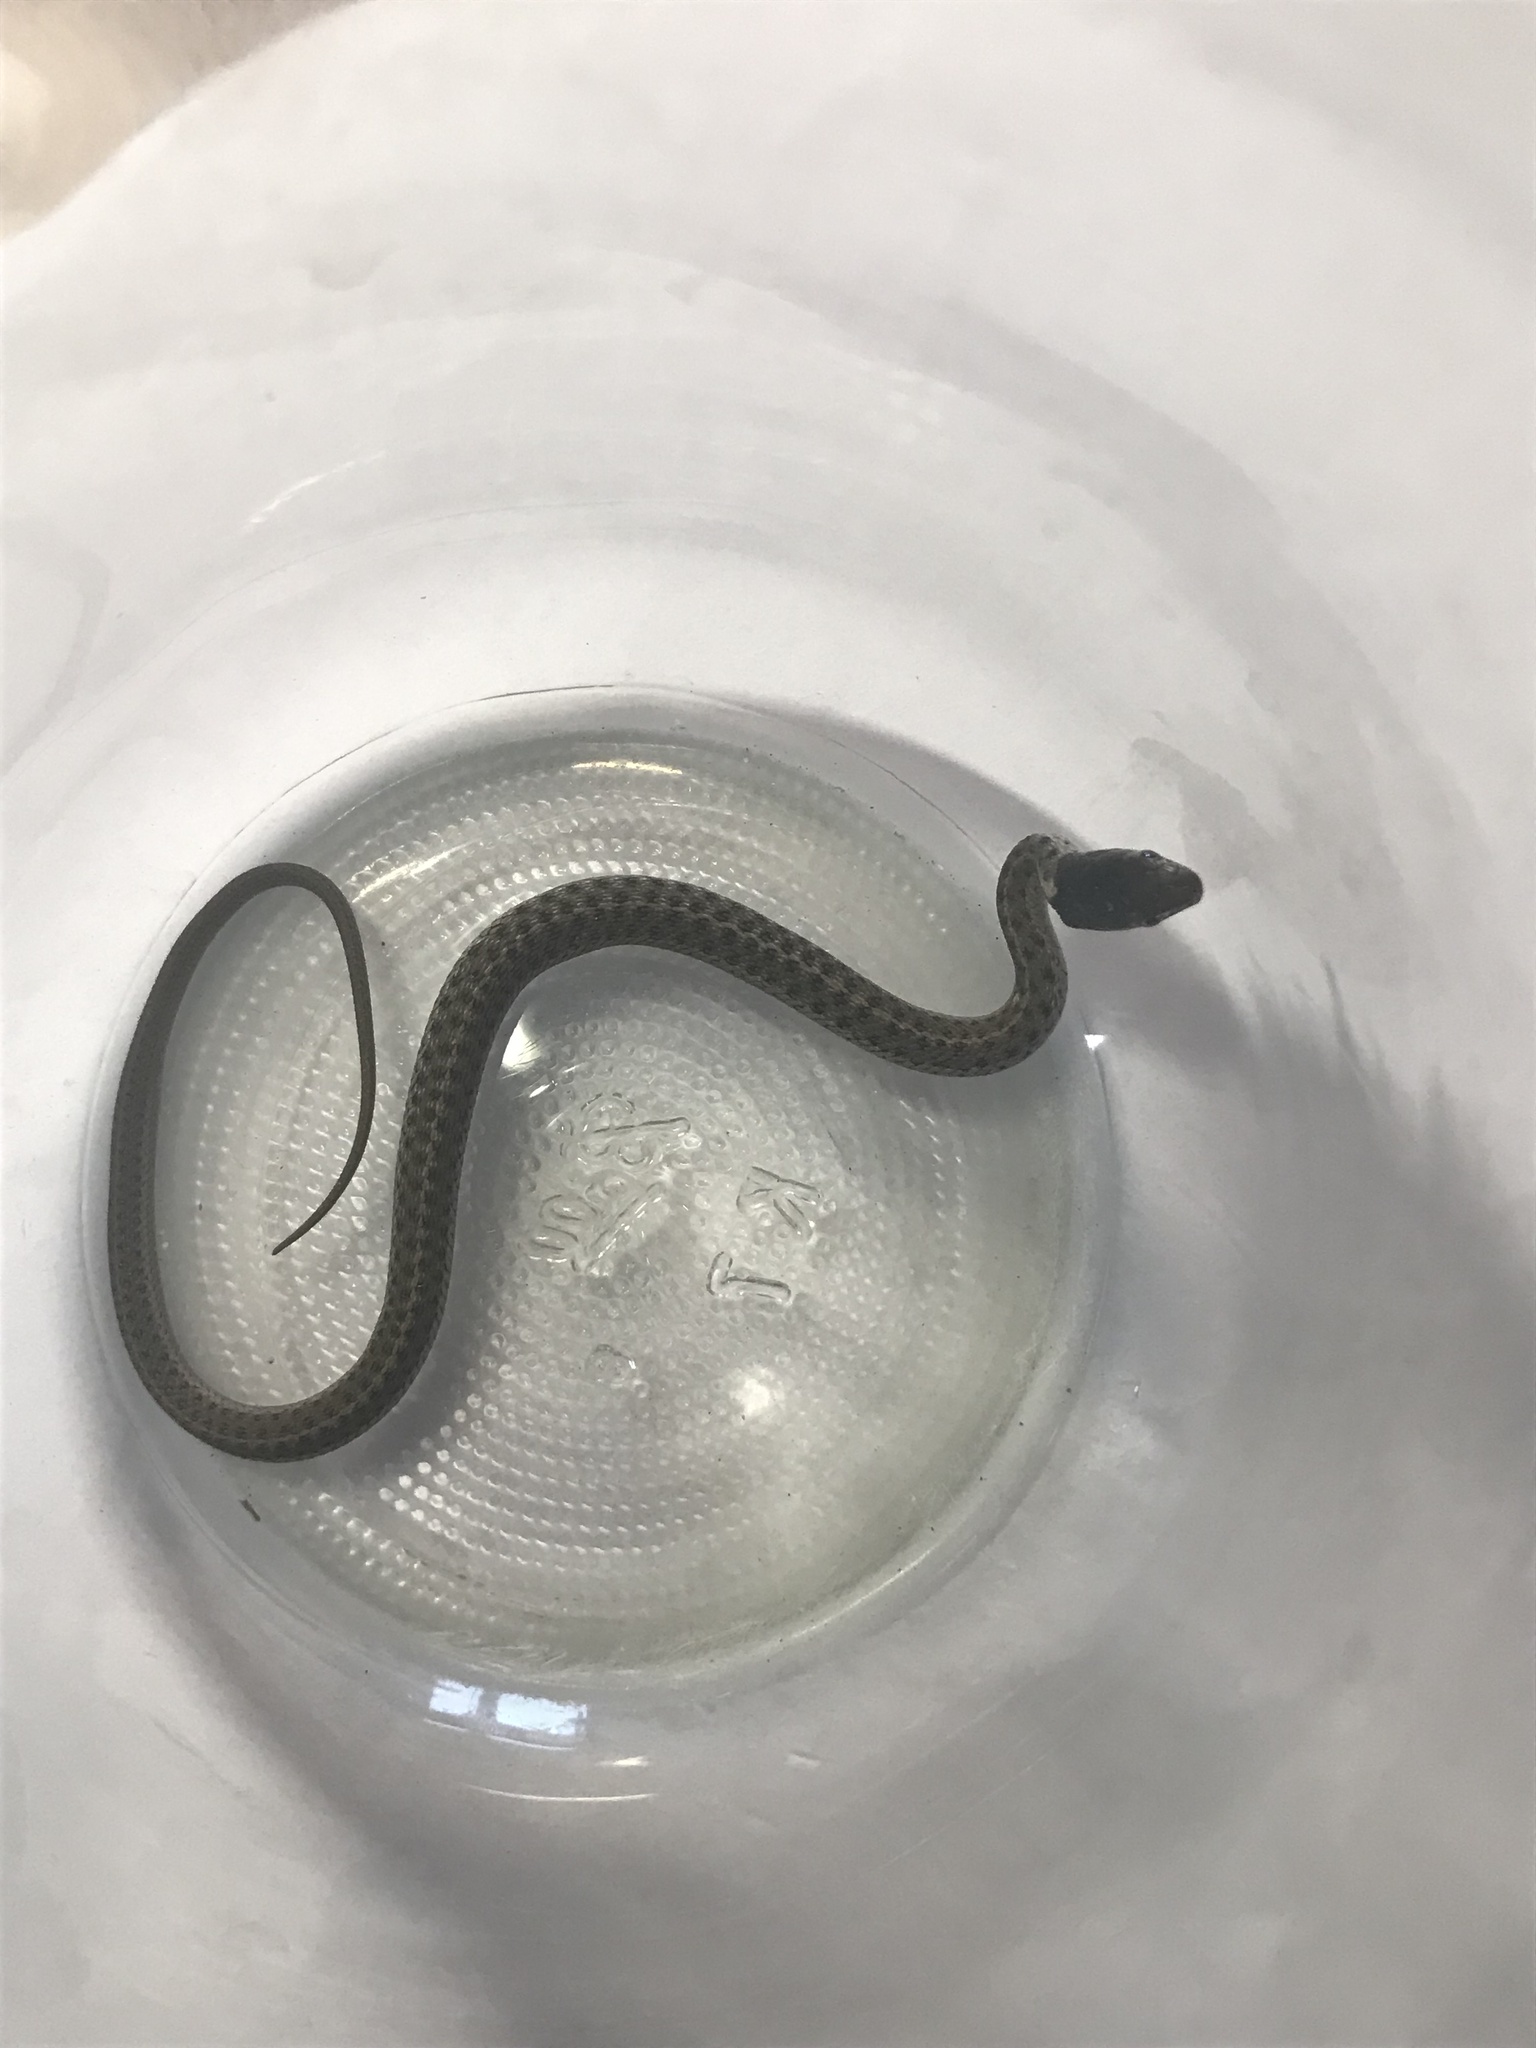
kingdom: Animalia
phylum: Chordata
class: Squamata
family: Colubridae
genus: Thamnophis
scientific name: Thamnophis elegans
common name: Western terrestrial garter snake
